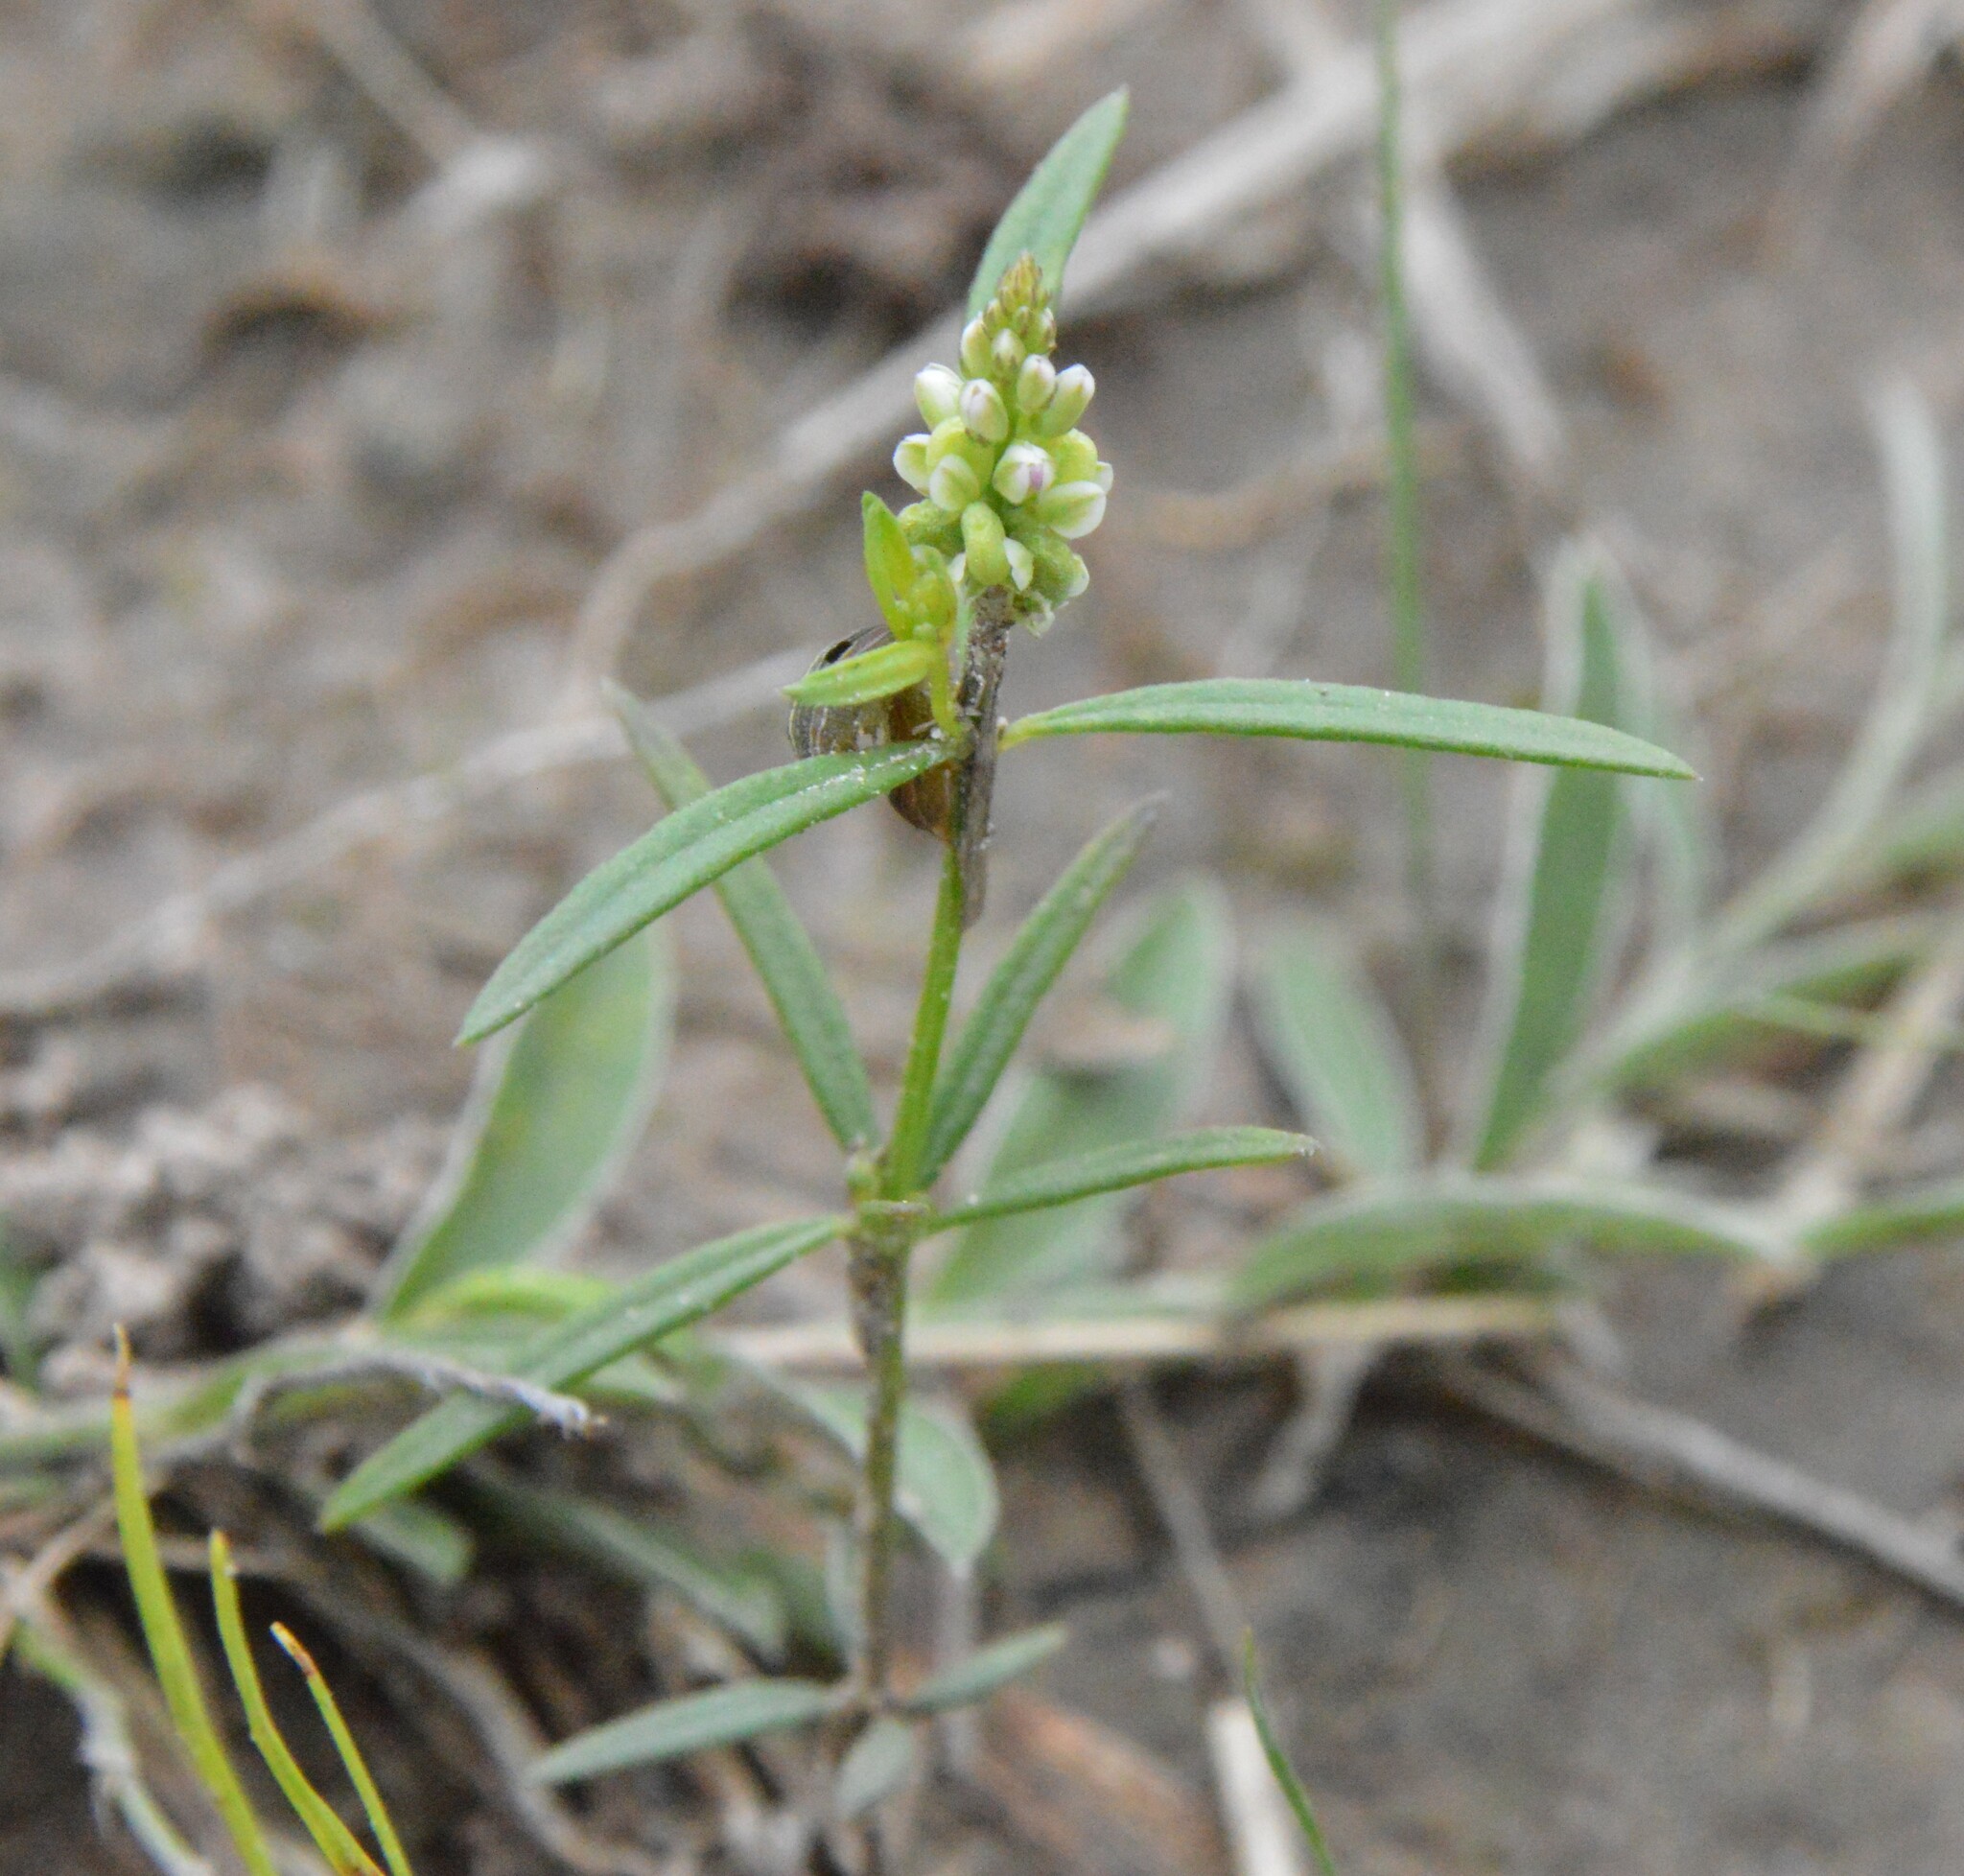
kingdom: Plantae
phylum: Tracheophyta
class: Magnoliopsida
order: Fabales
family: Polygalaceae
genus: Polygala
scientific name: Polygala verticillata
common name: Whorl milkwort
